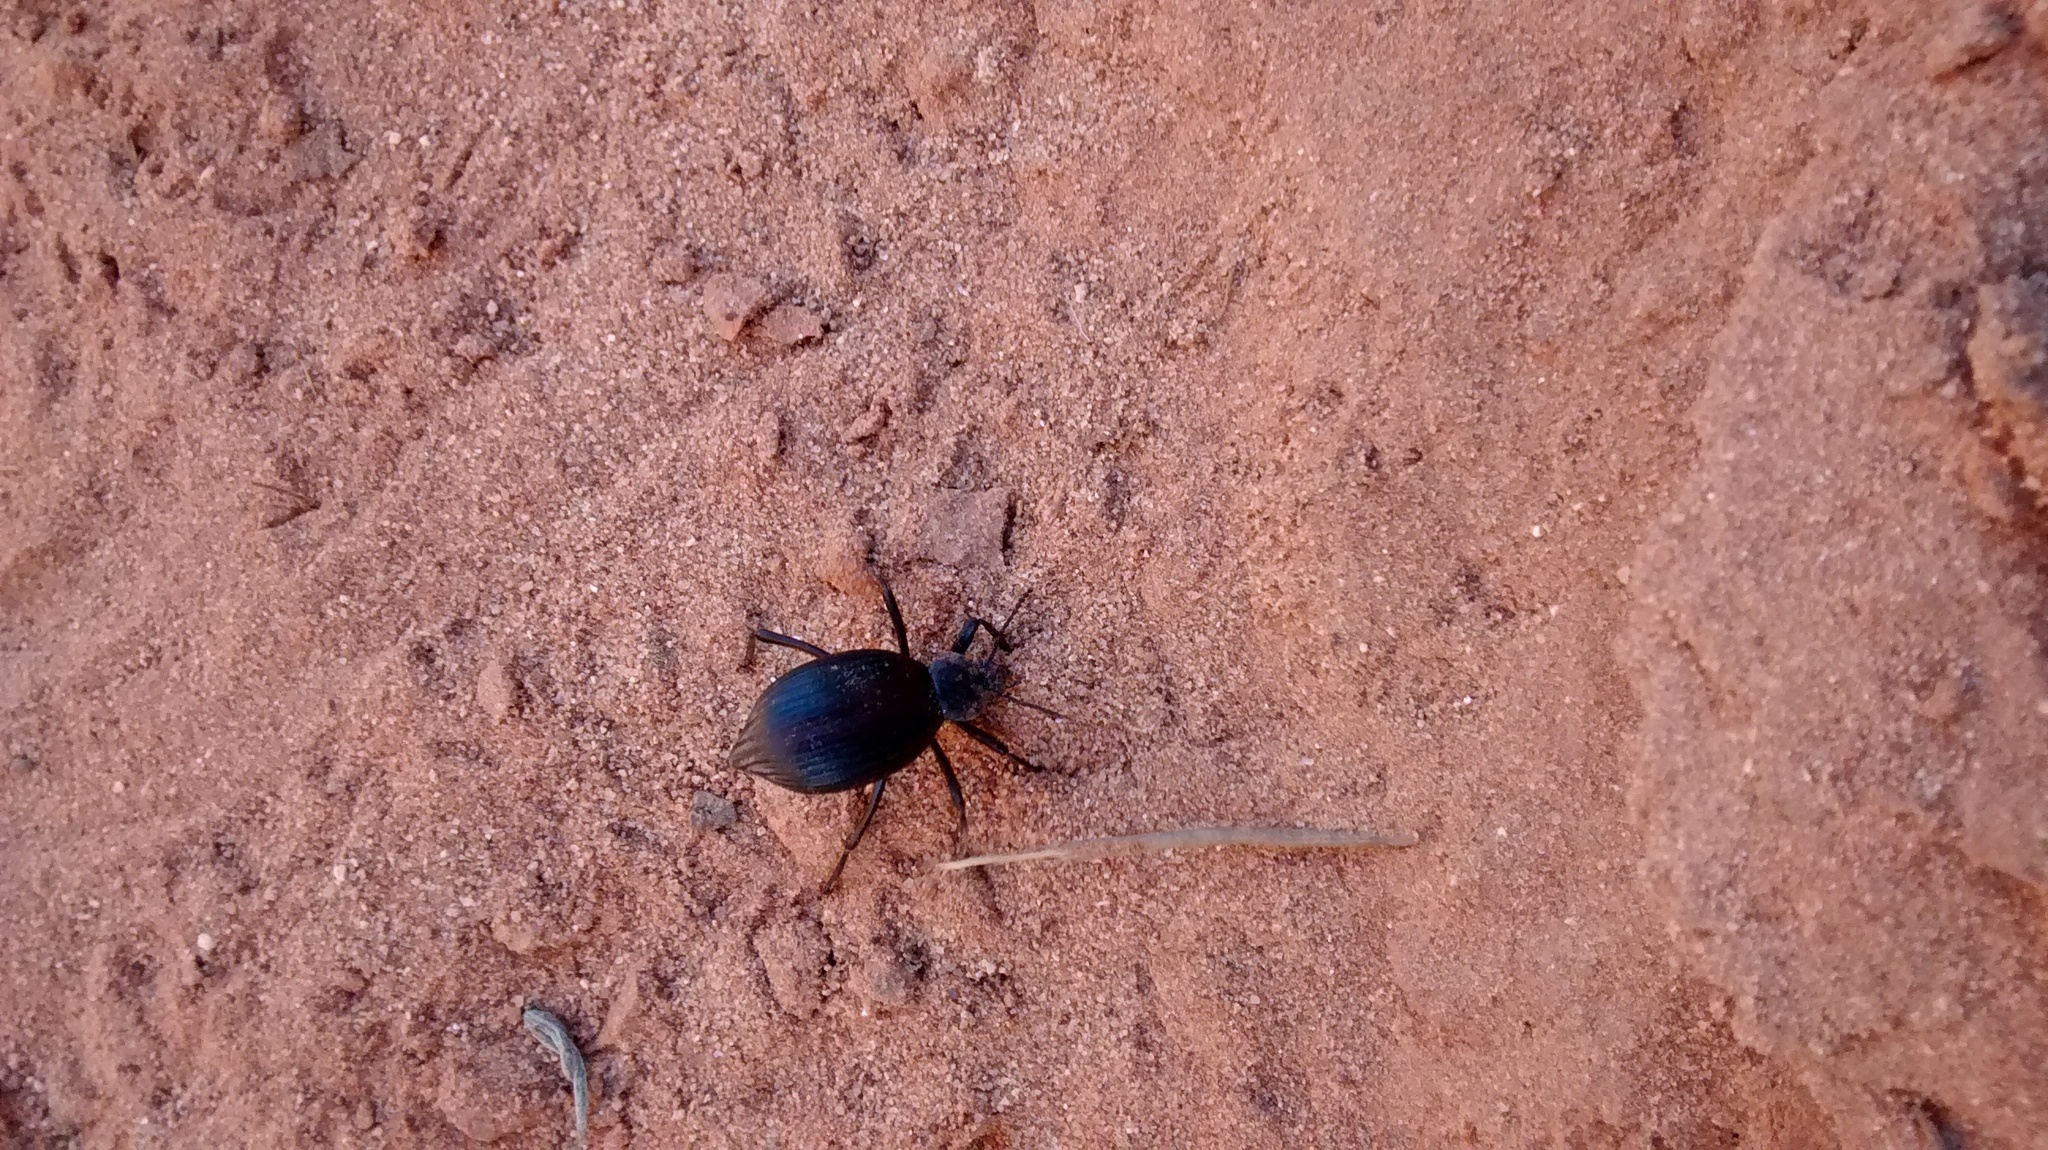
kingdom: Animalia
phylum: Arthropoda
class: Insecta
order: Coleoptera
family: Tenebrionidae
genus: Eleodes
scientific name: Eleodes hispilabris
